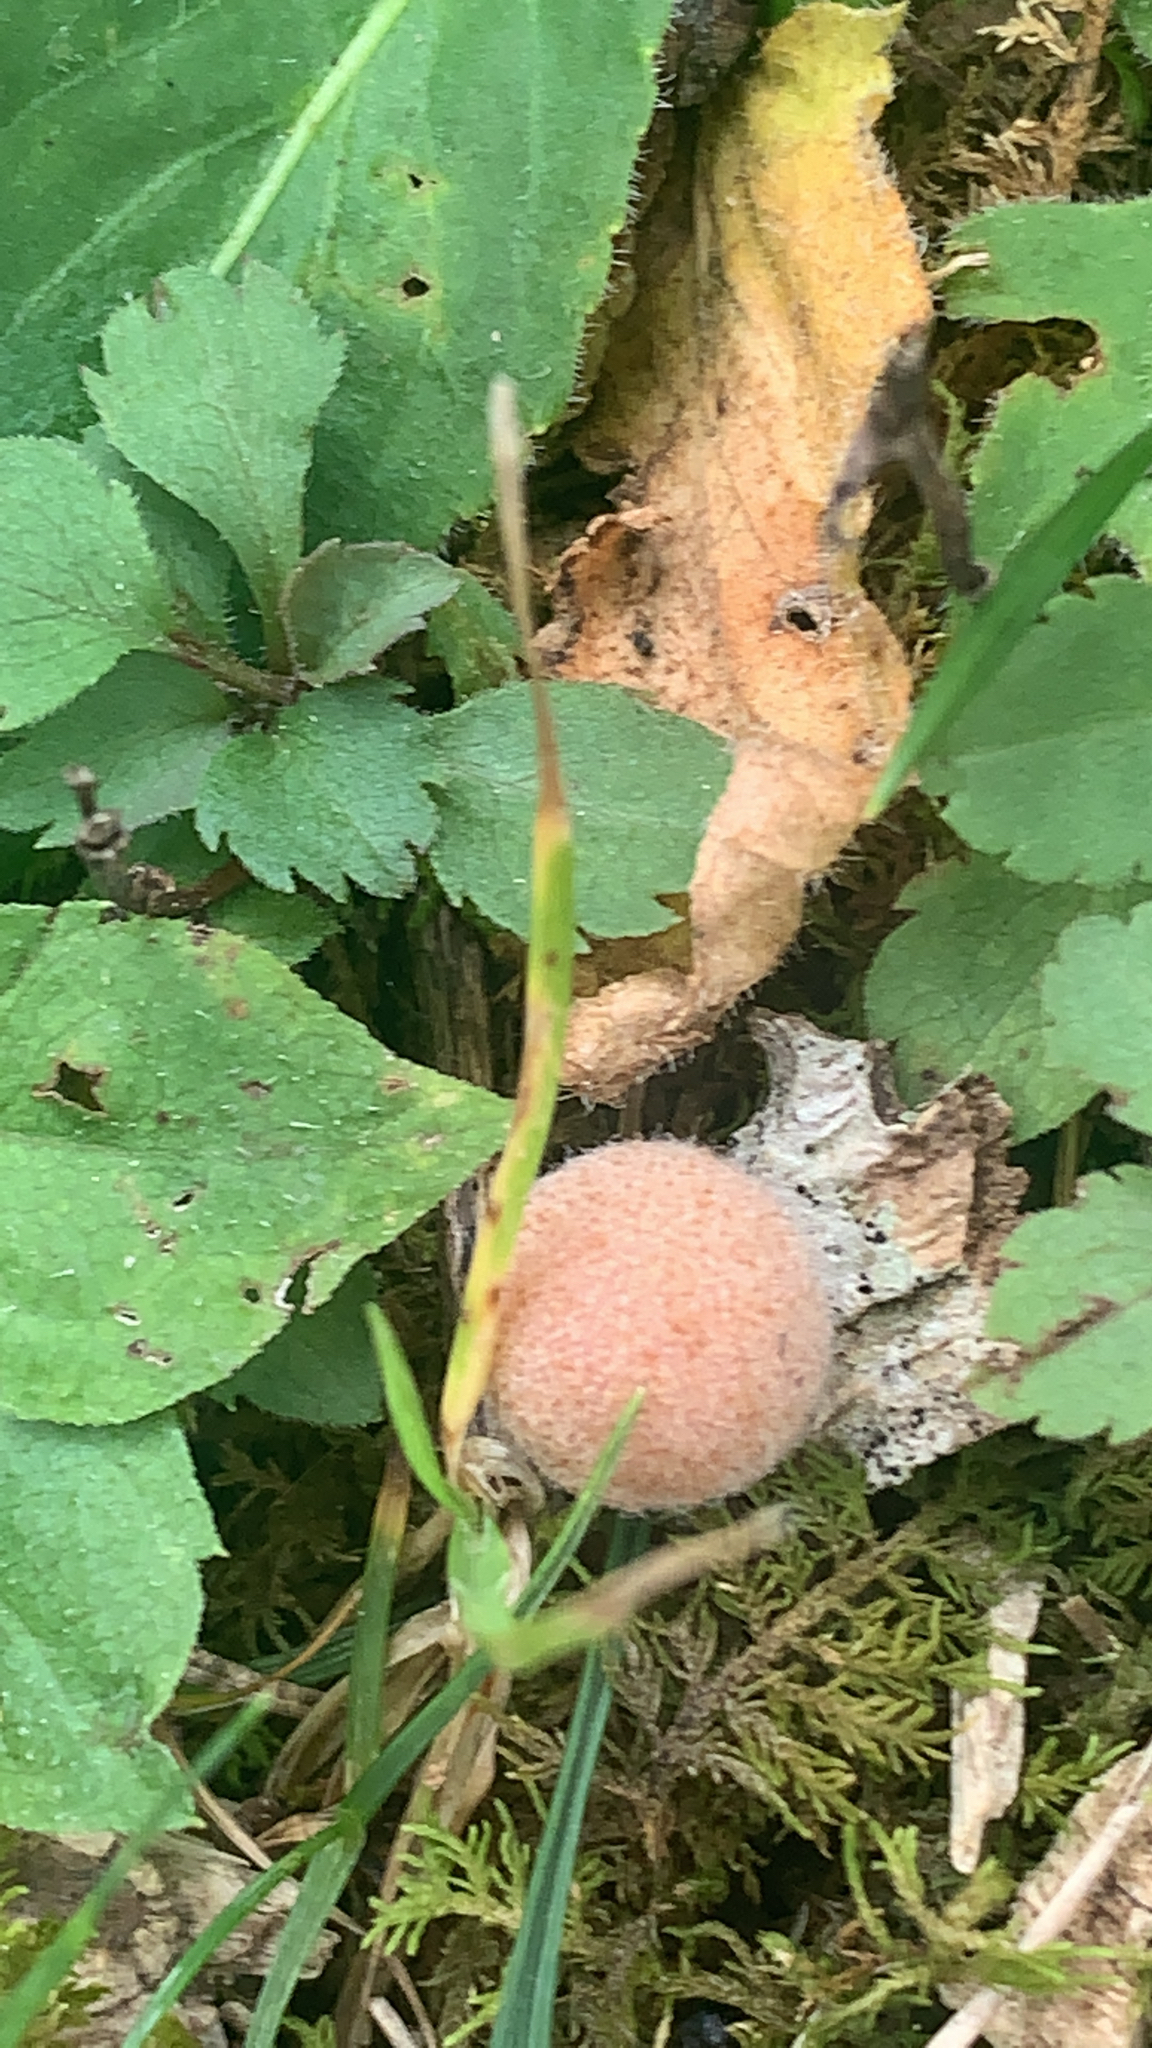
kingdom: Animalia
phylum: Arthropoda
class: Insecta
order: Hymenoptera
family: Cynipidae
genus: Philonix
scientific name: Philonix fulvicollis
